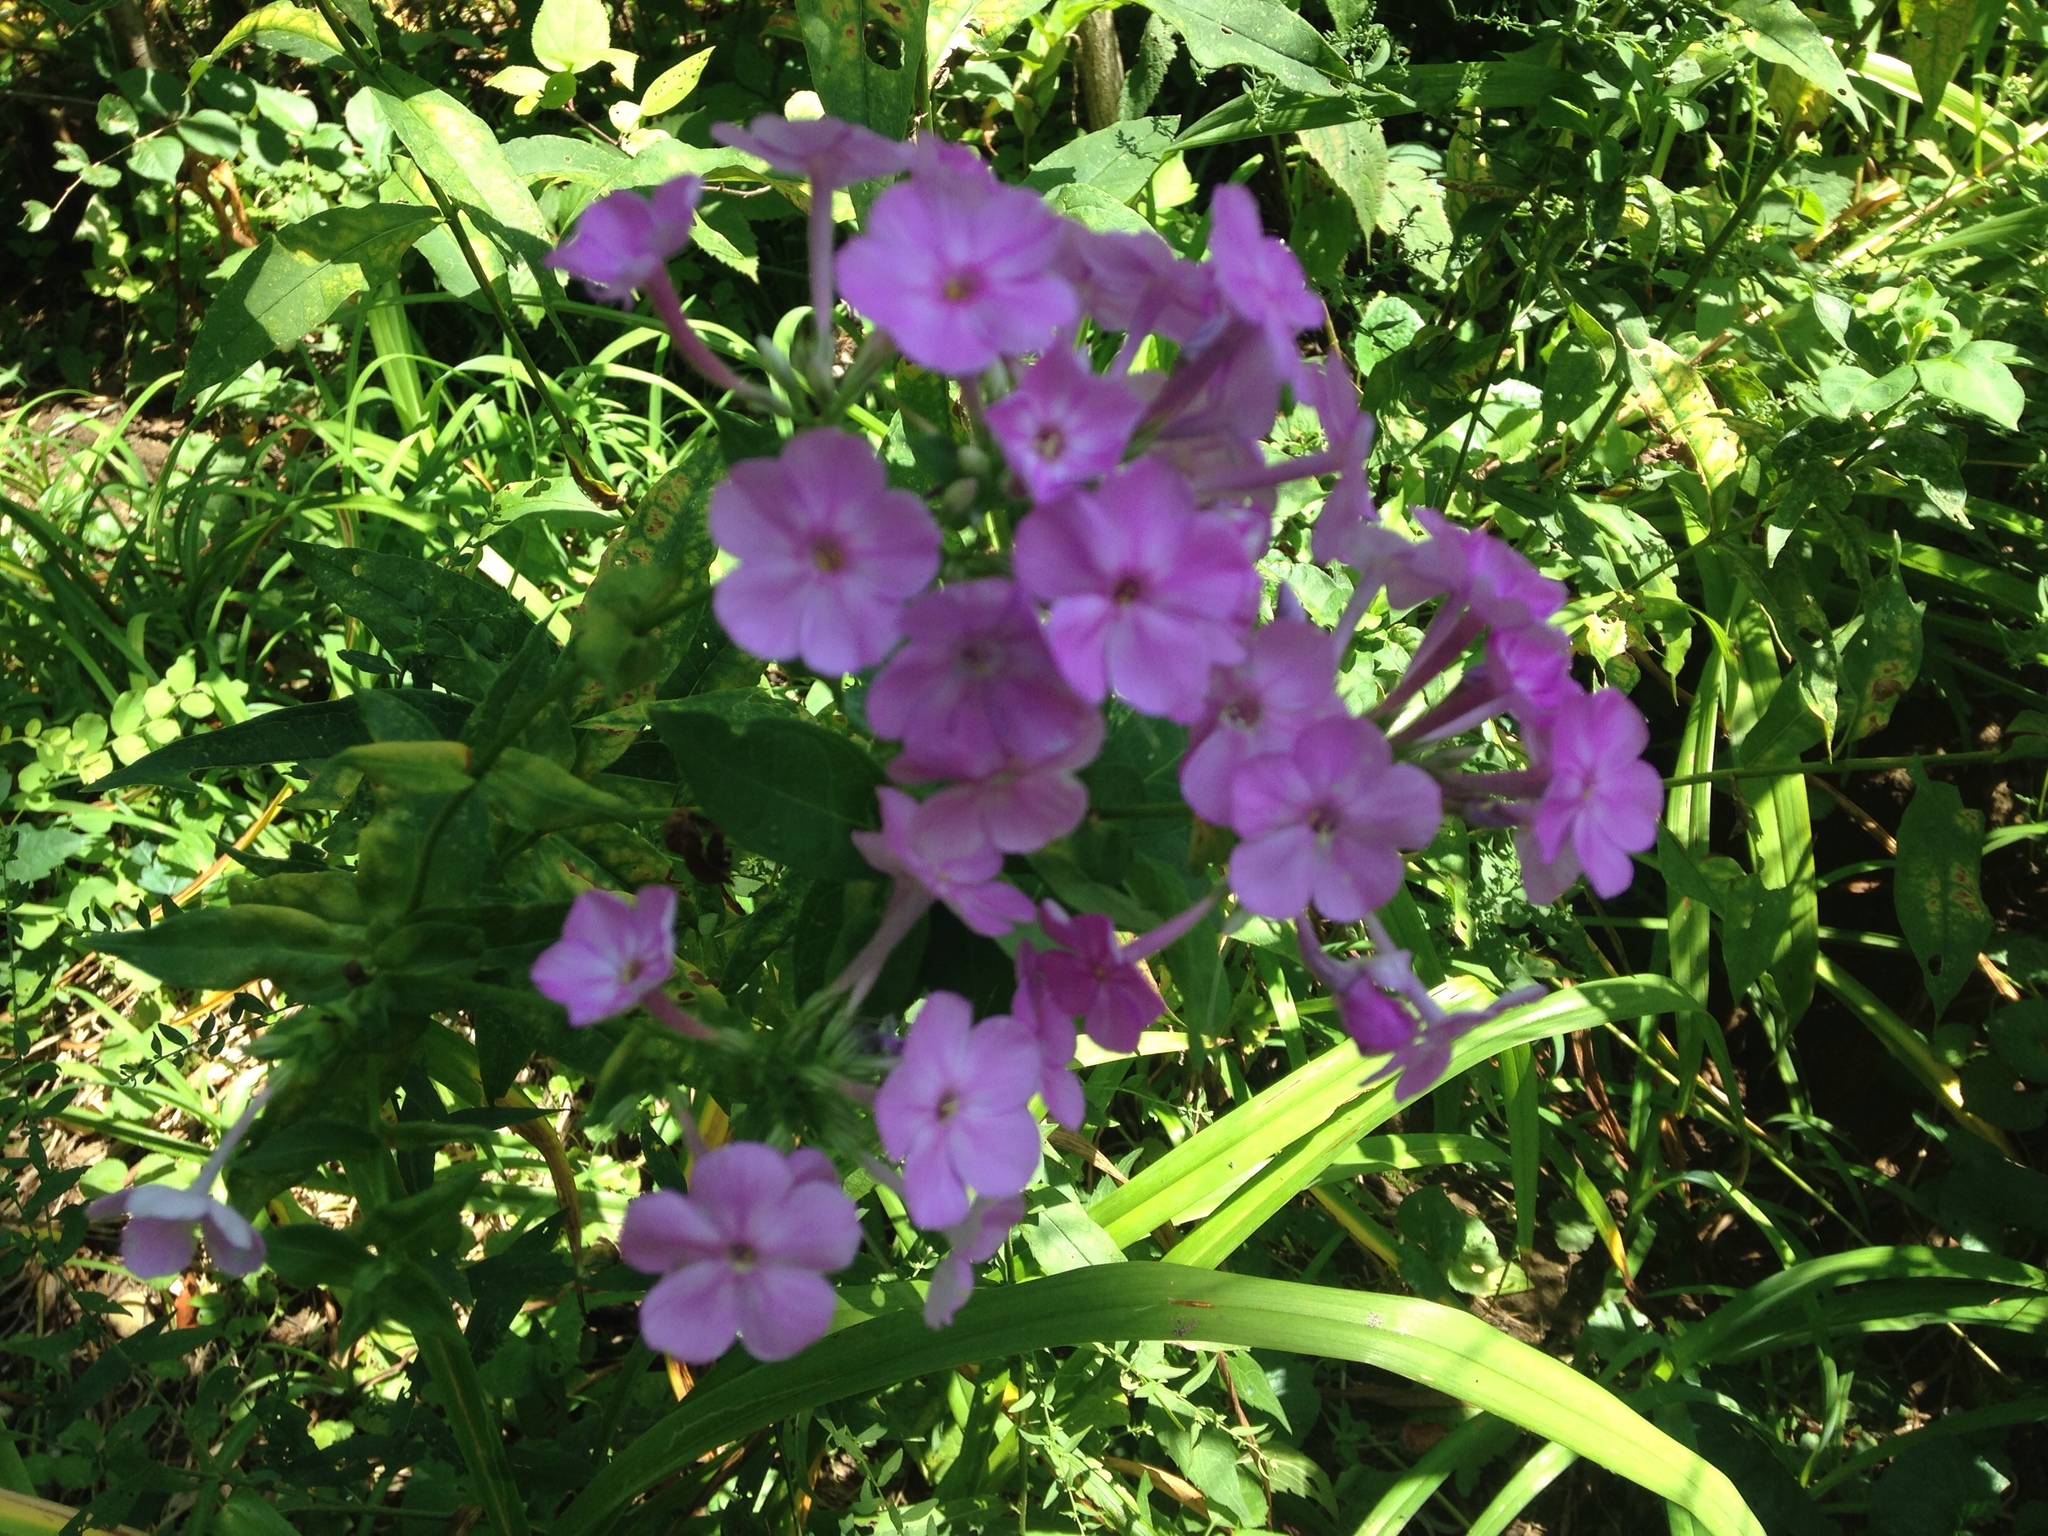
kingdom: Plantae
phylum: Tracheophyta
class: Magnoliopsida
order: Ericales
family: Polemoniaceae
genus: Phlox
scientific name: Phlox paniculata
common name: Fall phlox
